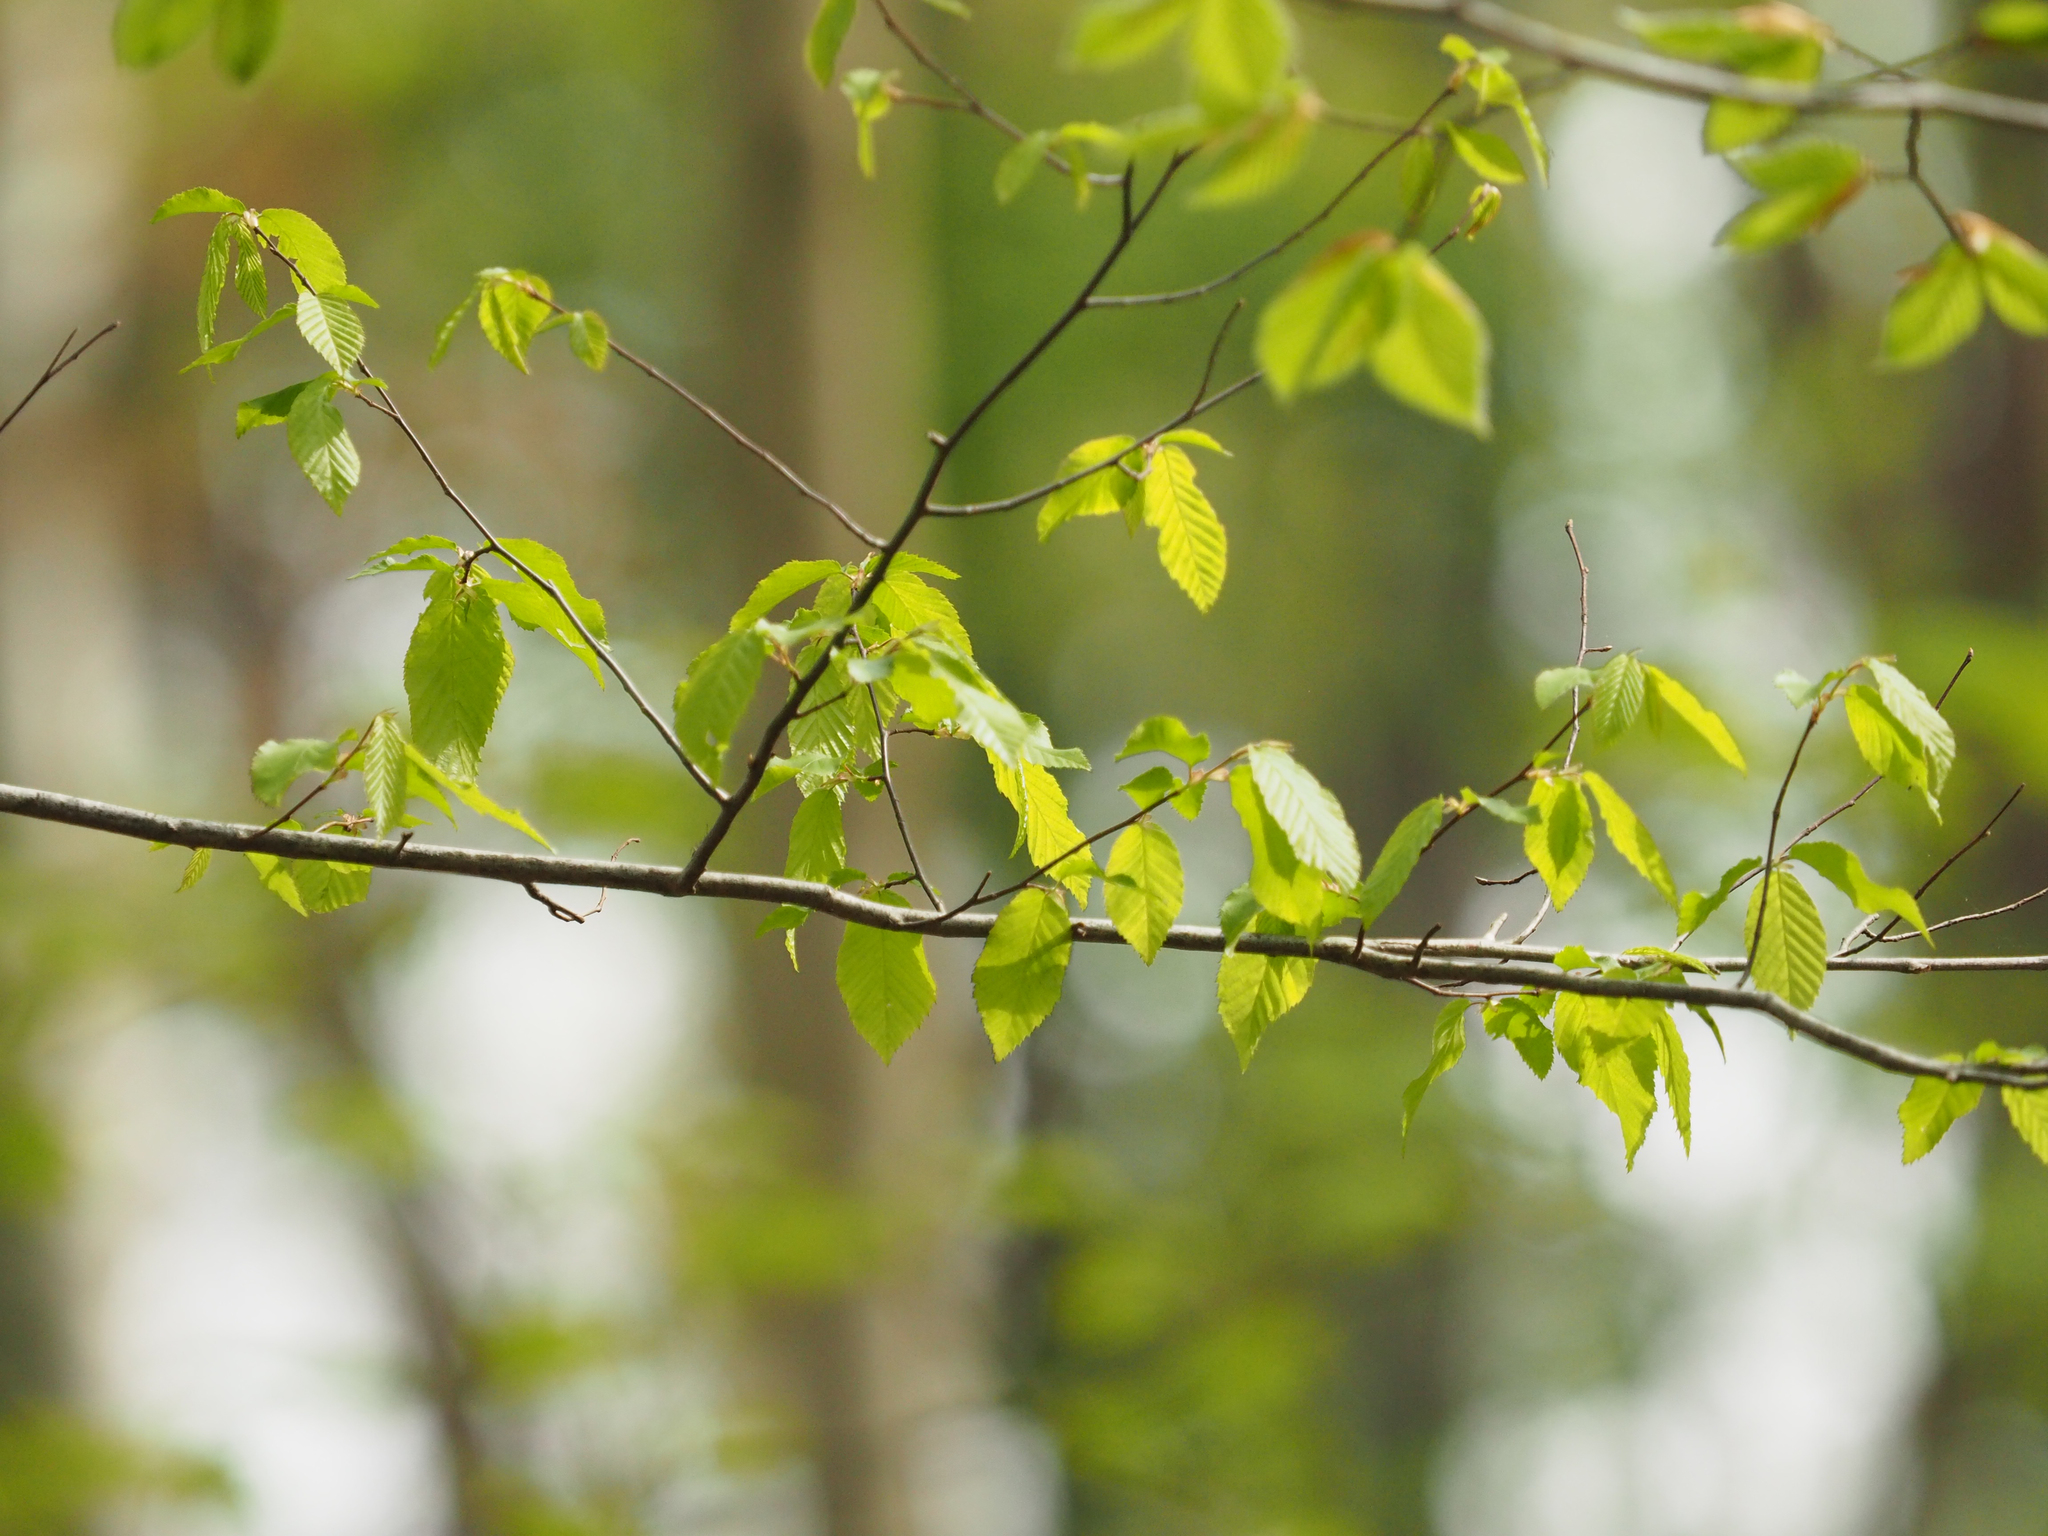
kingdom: Plantae
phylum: Tracheophyta
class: Magnoliopsida
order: Fagales
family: Betulaceae
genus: Carpinus
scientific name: Carpinus caroliniana
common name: American hornbeam
